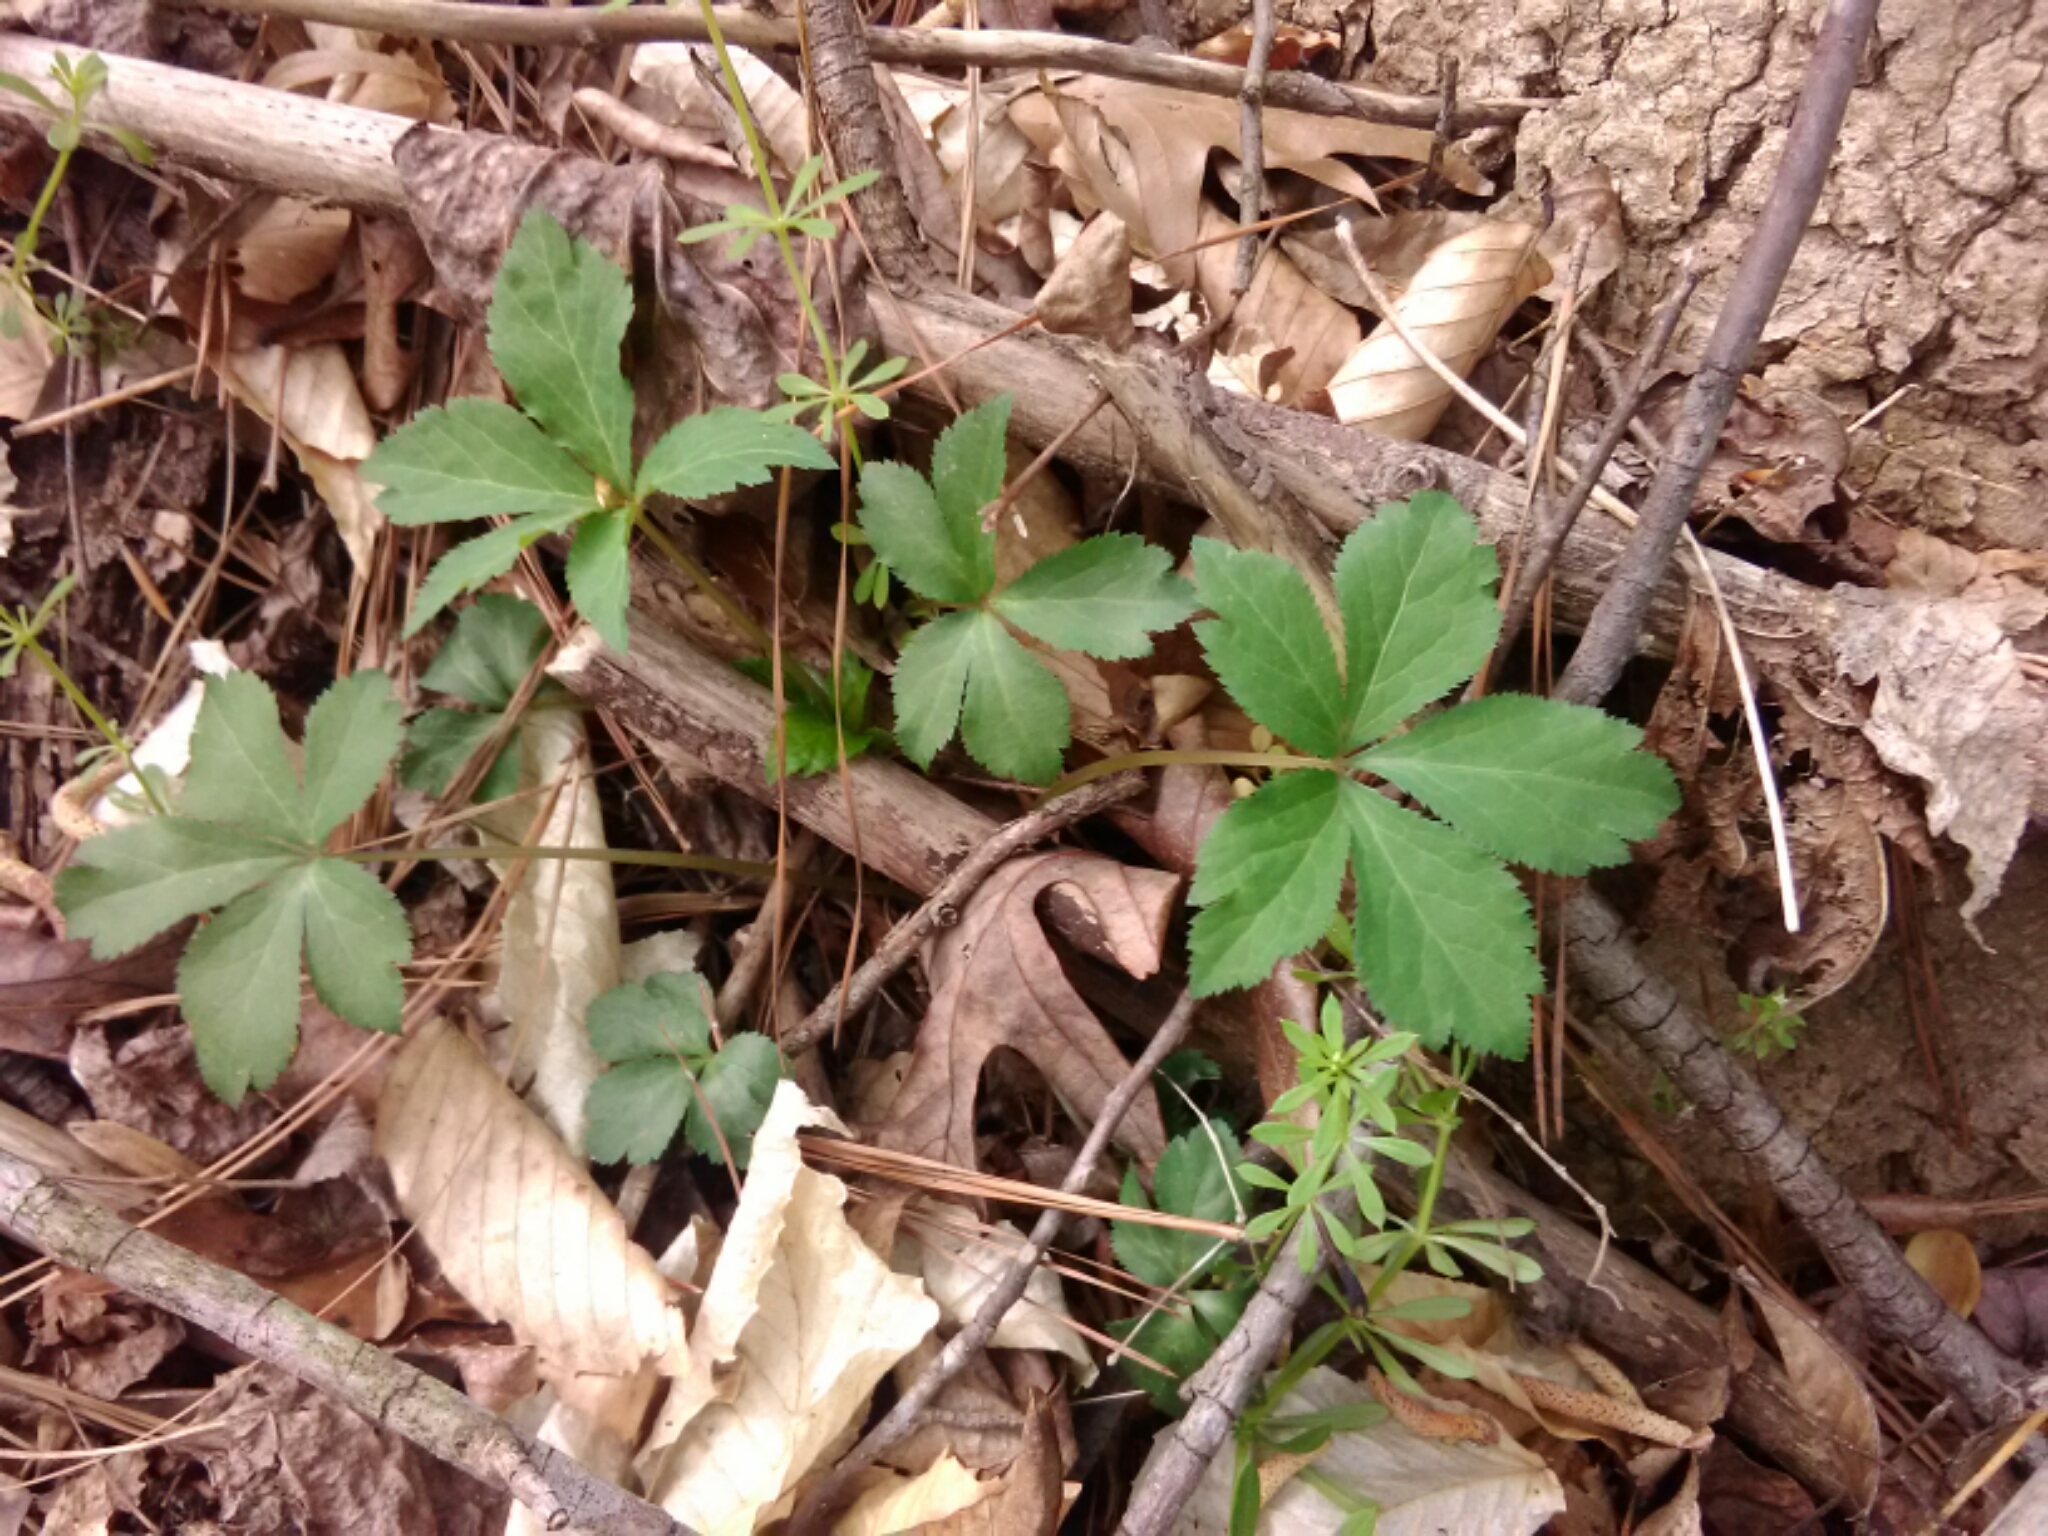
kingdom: Plantae
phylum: Tracheophyta
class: Magnoliopsida
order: Vitales
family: Vitaceae
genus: Parthenocissus
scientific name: Parthenocissus quinquefolia
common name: Virginia-creeper
